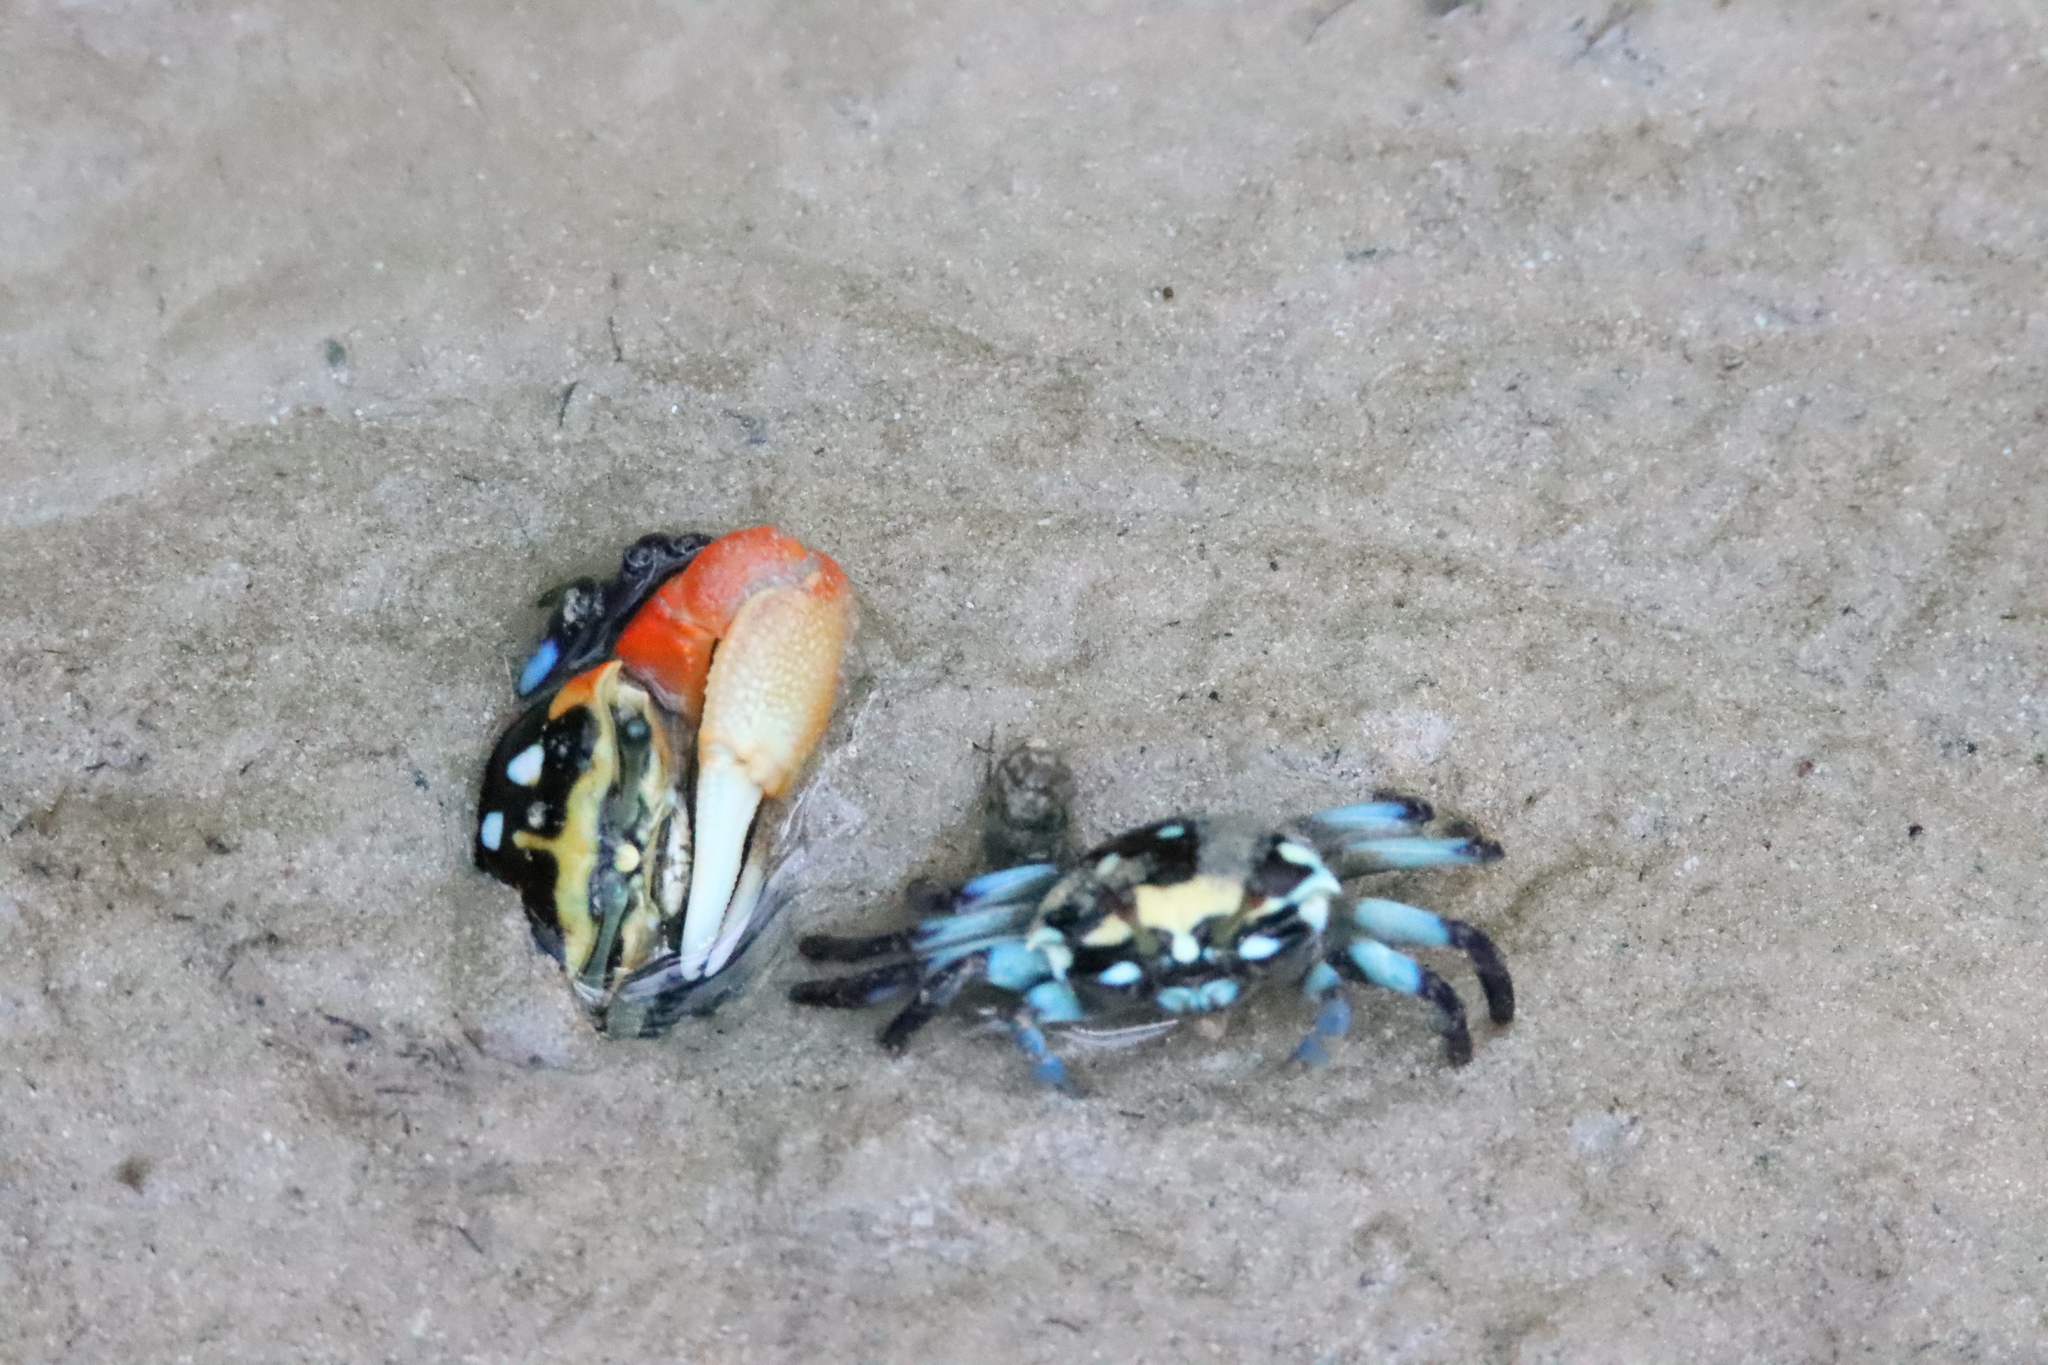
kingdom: Animalia
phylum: Arthropoda
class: Malacostraca
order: Decapoda
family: Ocypodidae
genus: Tubuca
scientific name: Tubuca capricornis
